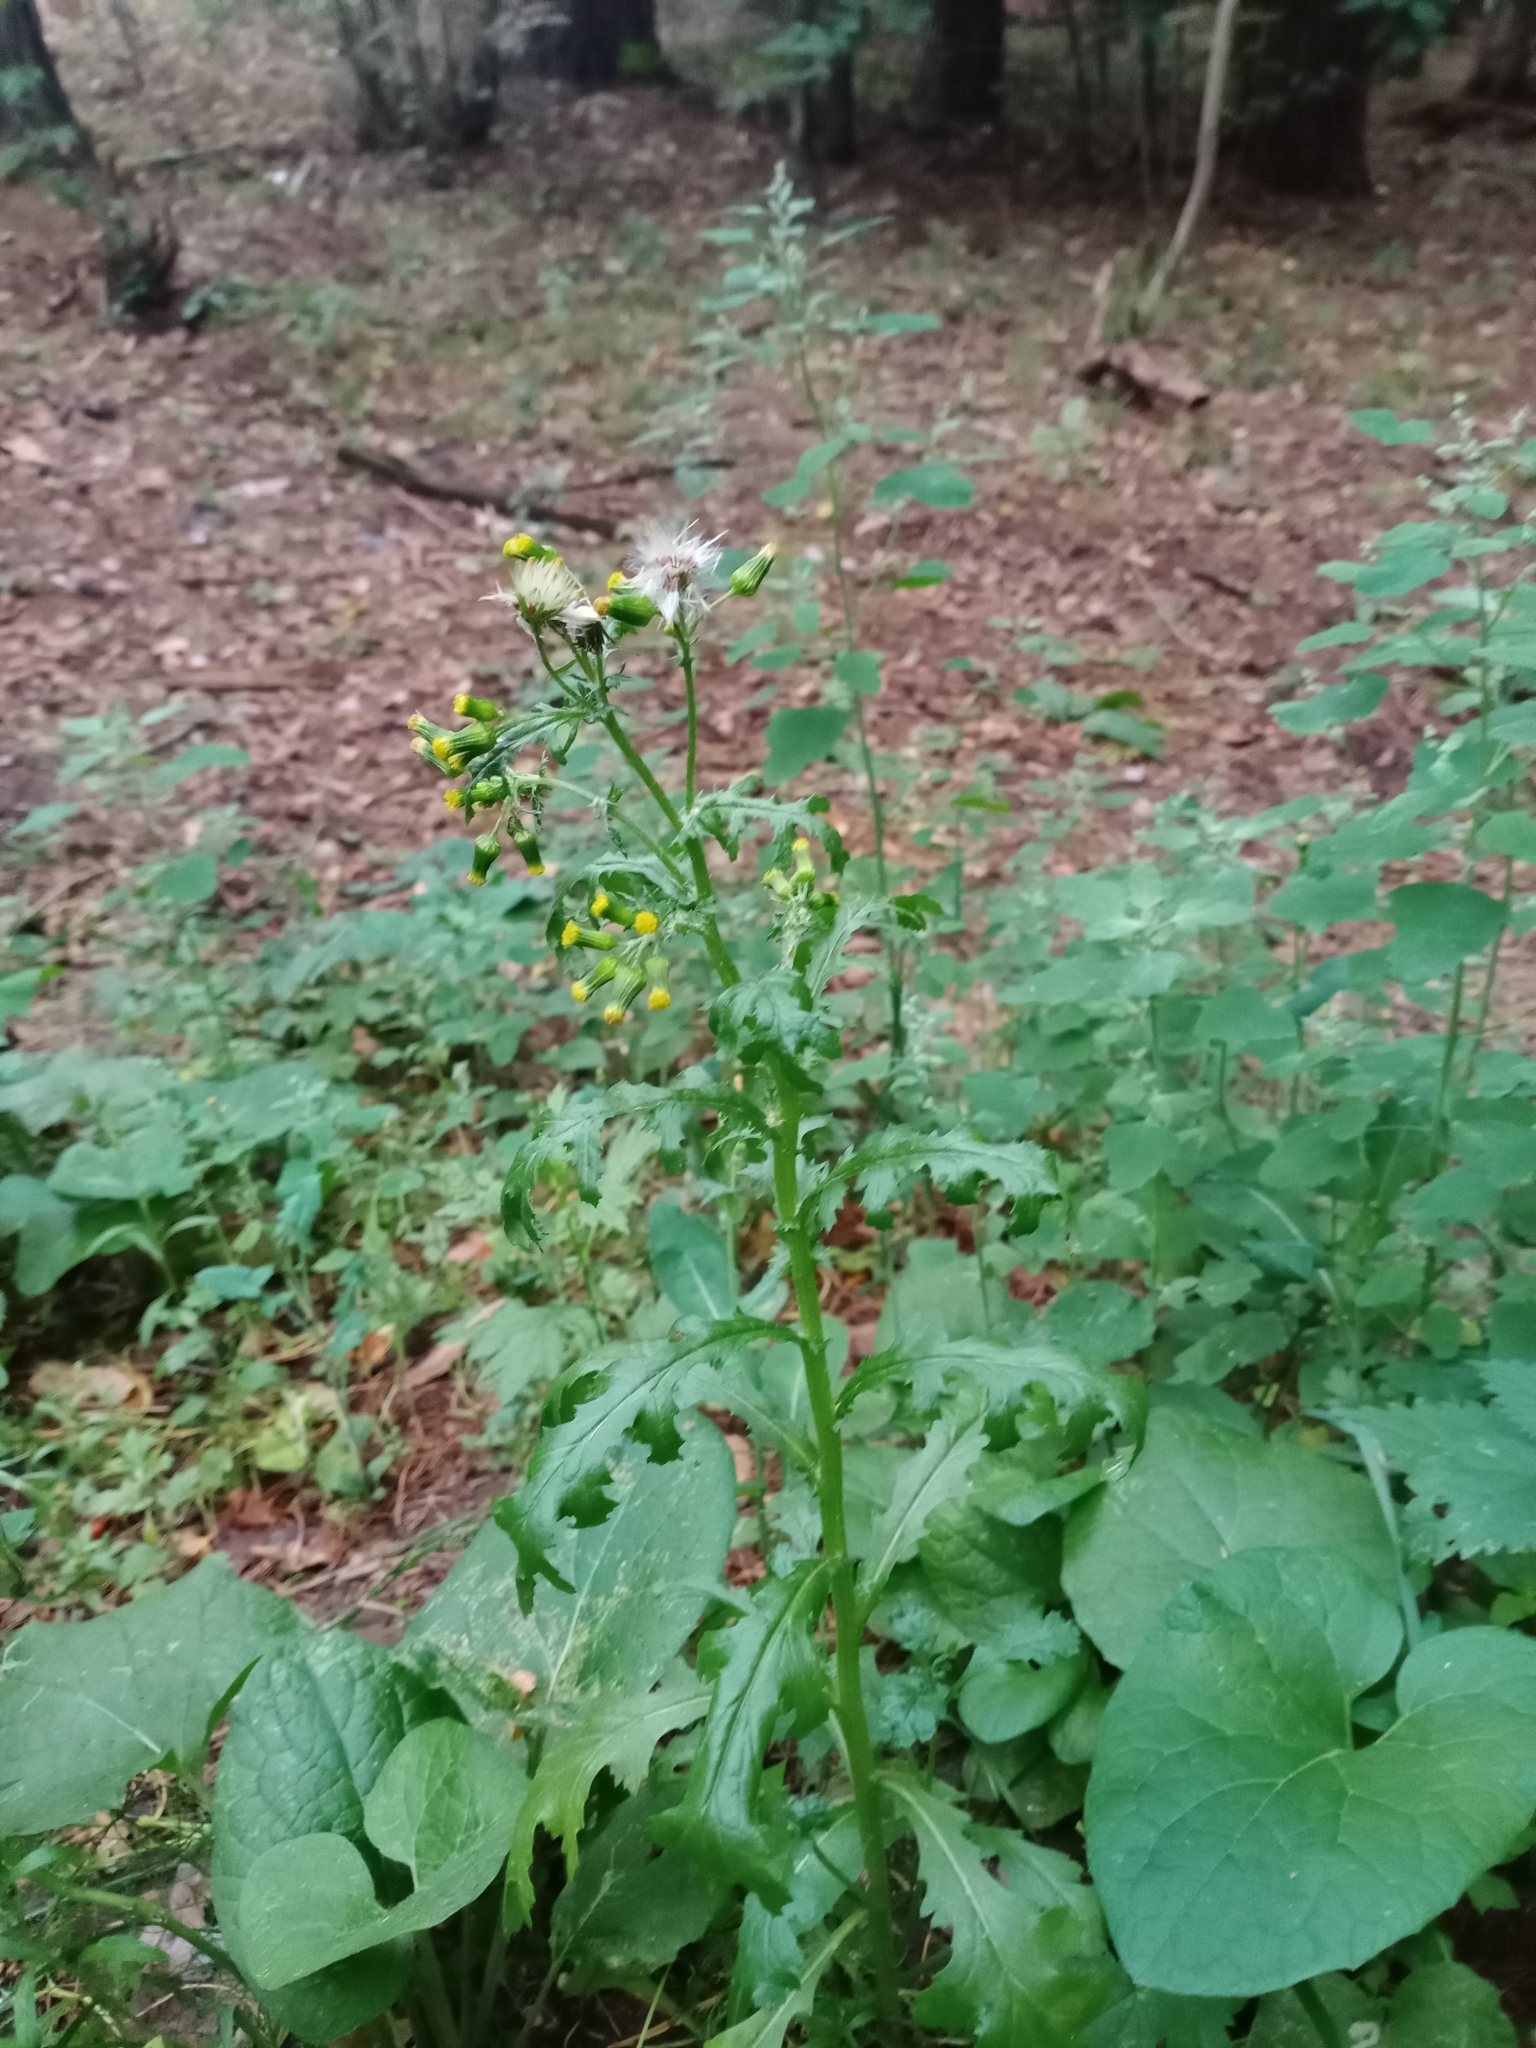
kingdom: Plantae
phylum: Tracheophyta
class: Magnoliopsida
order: Asterales
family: Asteraceae
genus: Senecio
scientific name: Senecio vulgaris
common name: Old-man-in-the-spring
